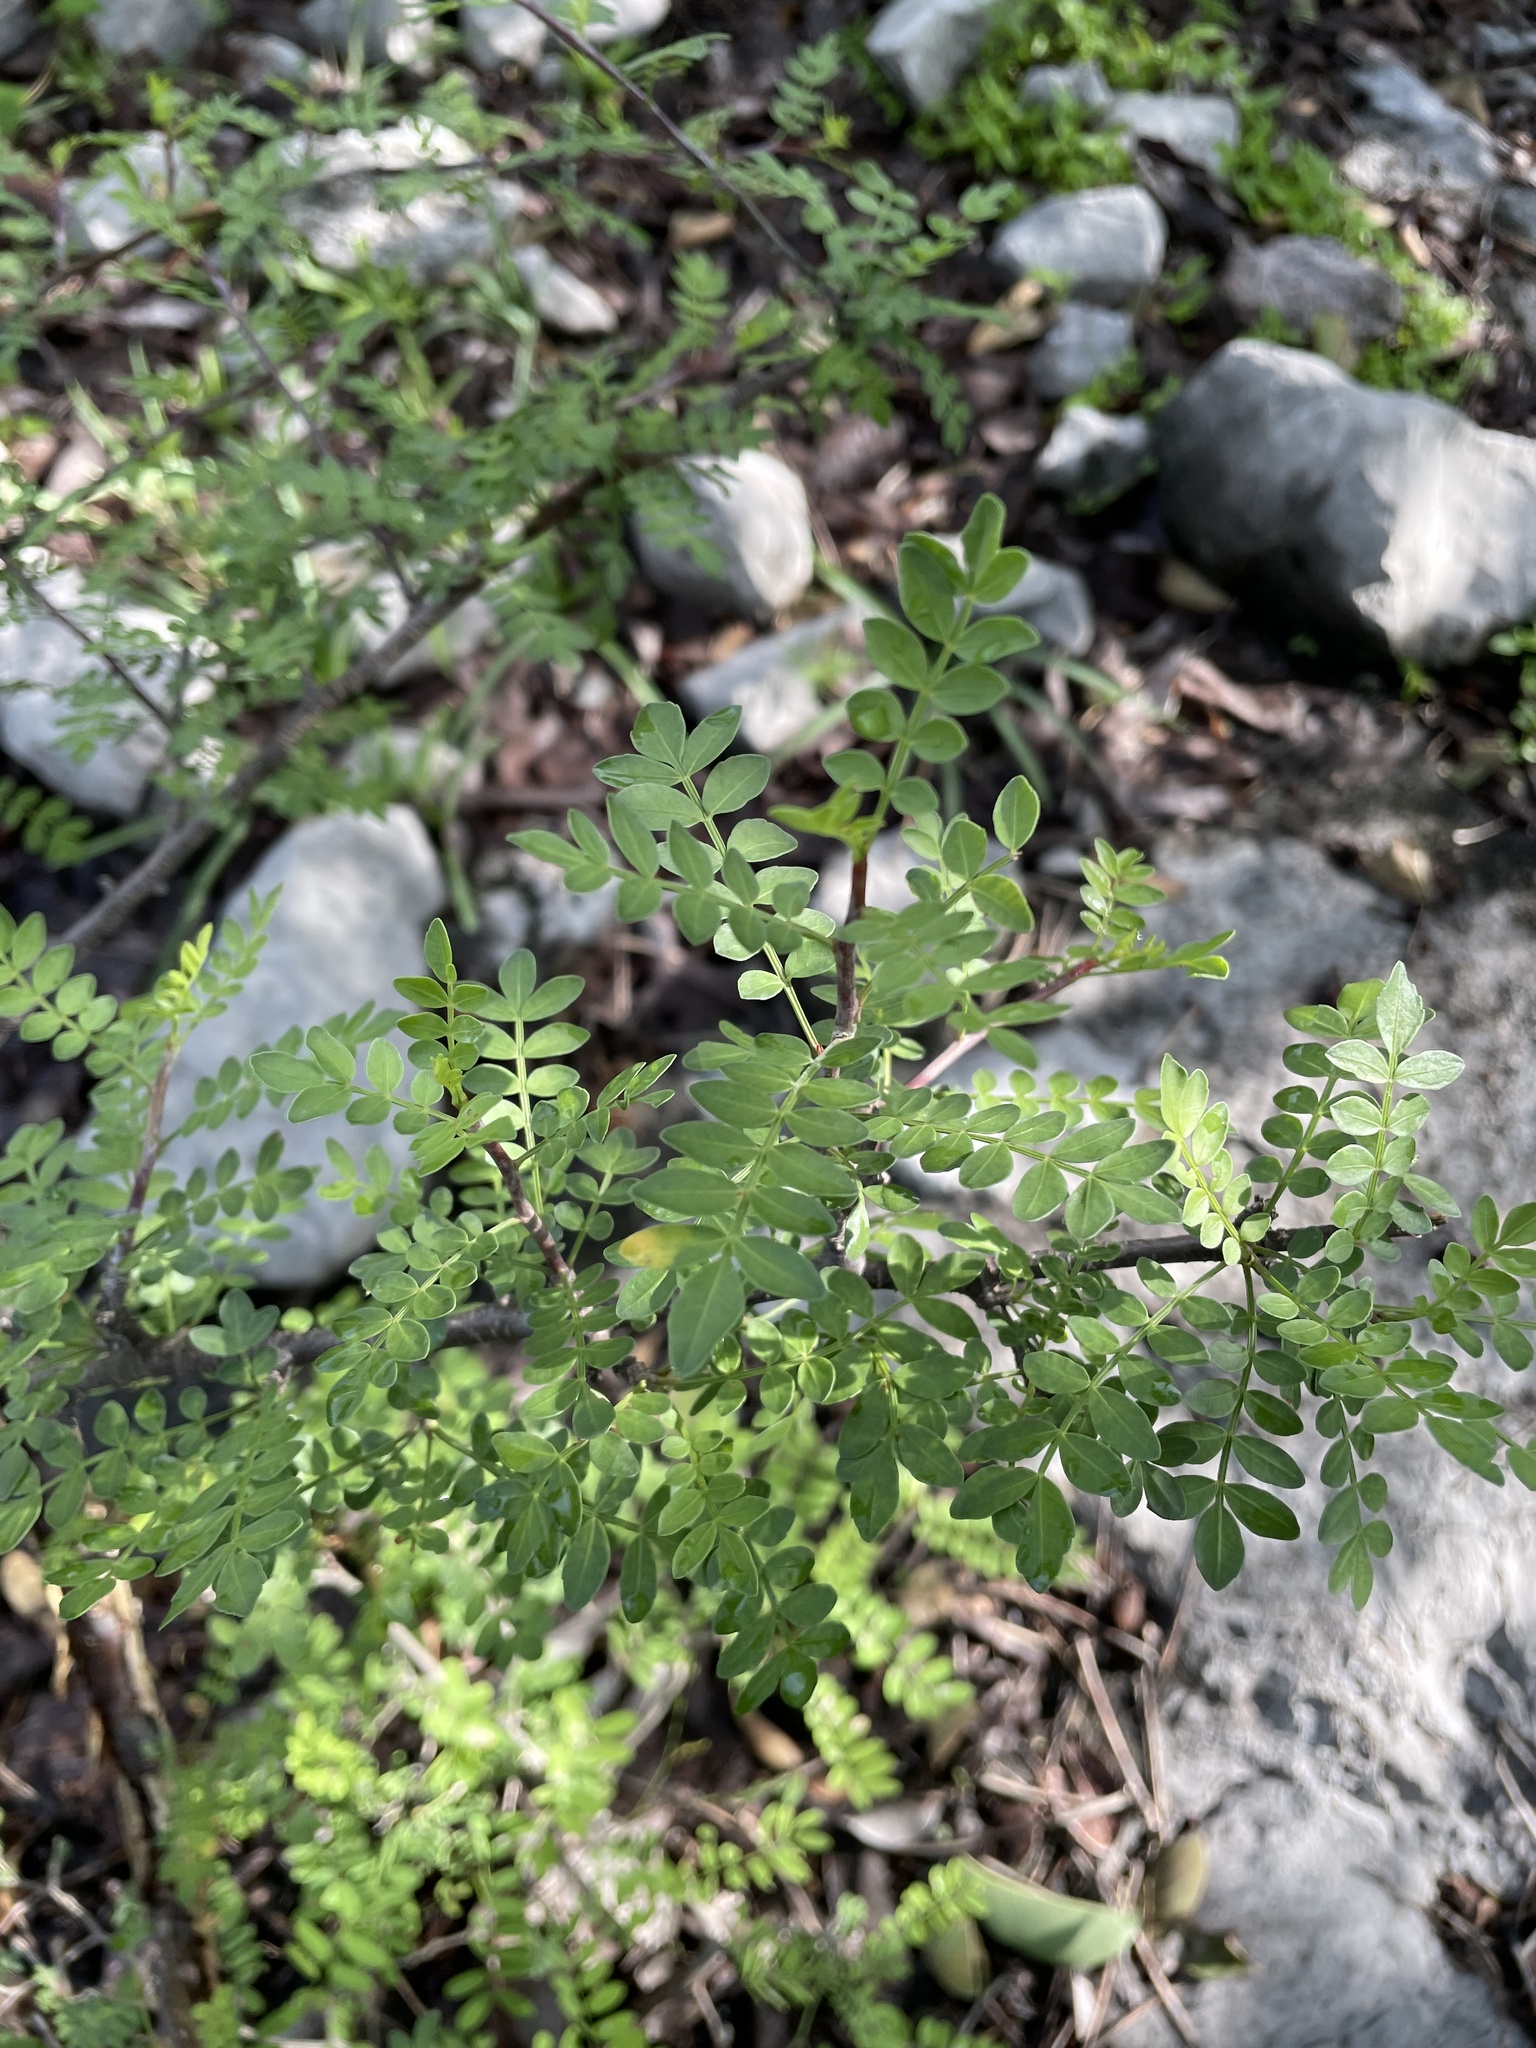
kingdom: Plantae
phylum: Tracheophyta
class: Magnoliopsida
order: Sapindales
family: Burseraceae
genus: Bursera
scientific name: Bursera aptera
